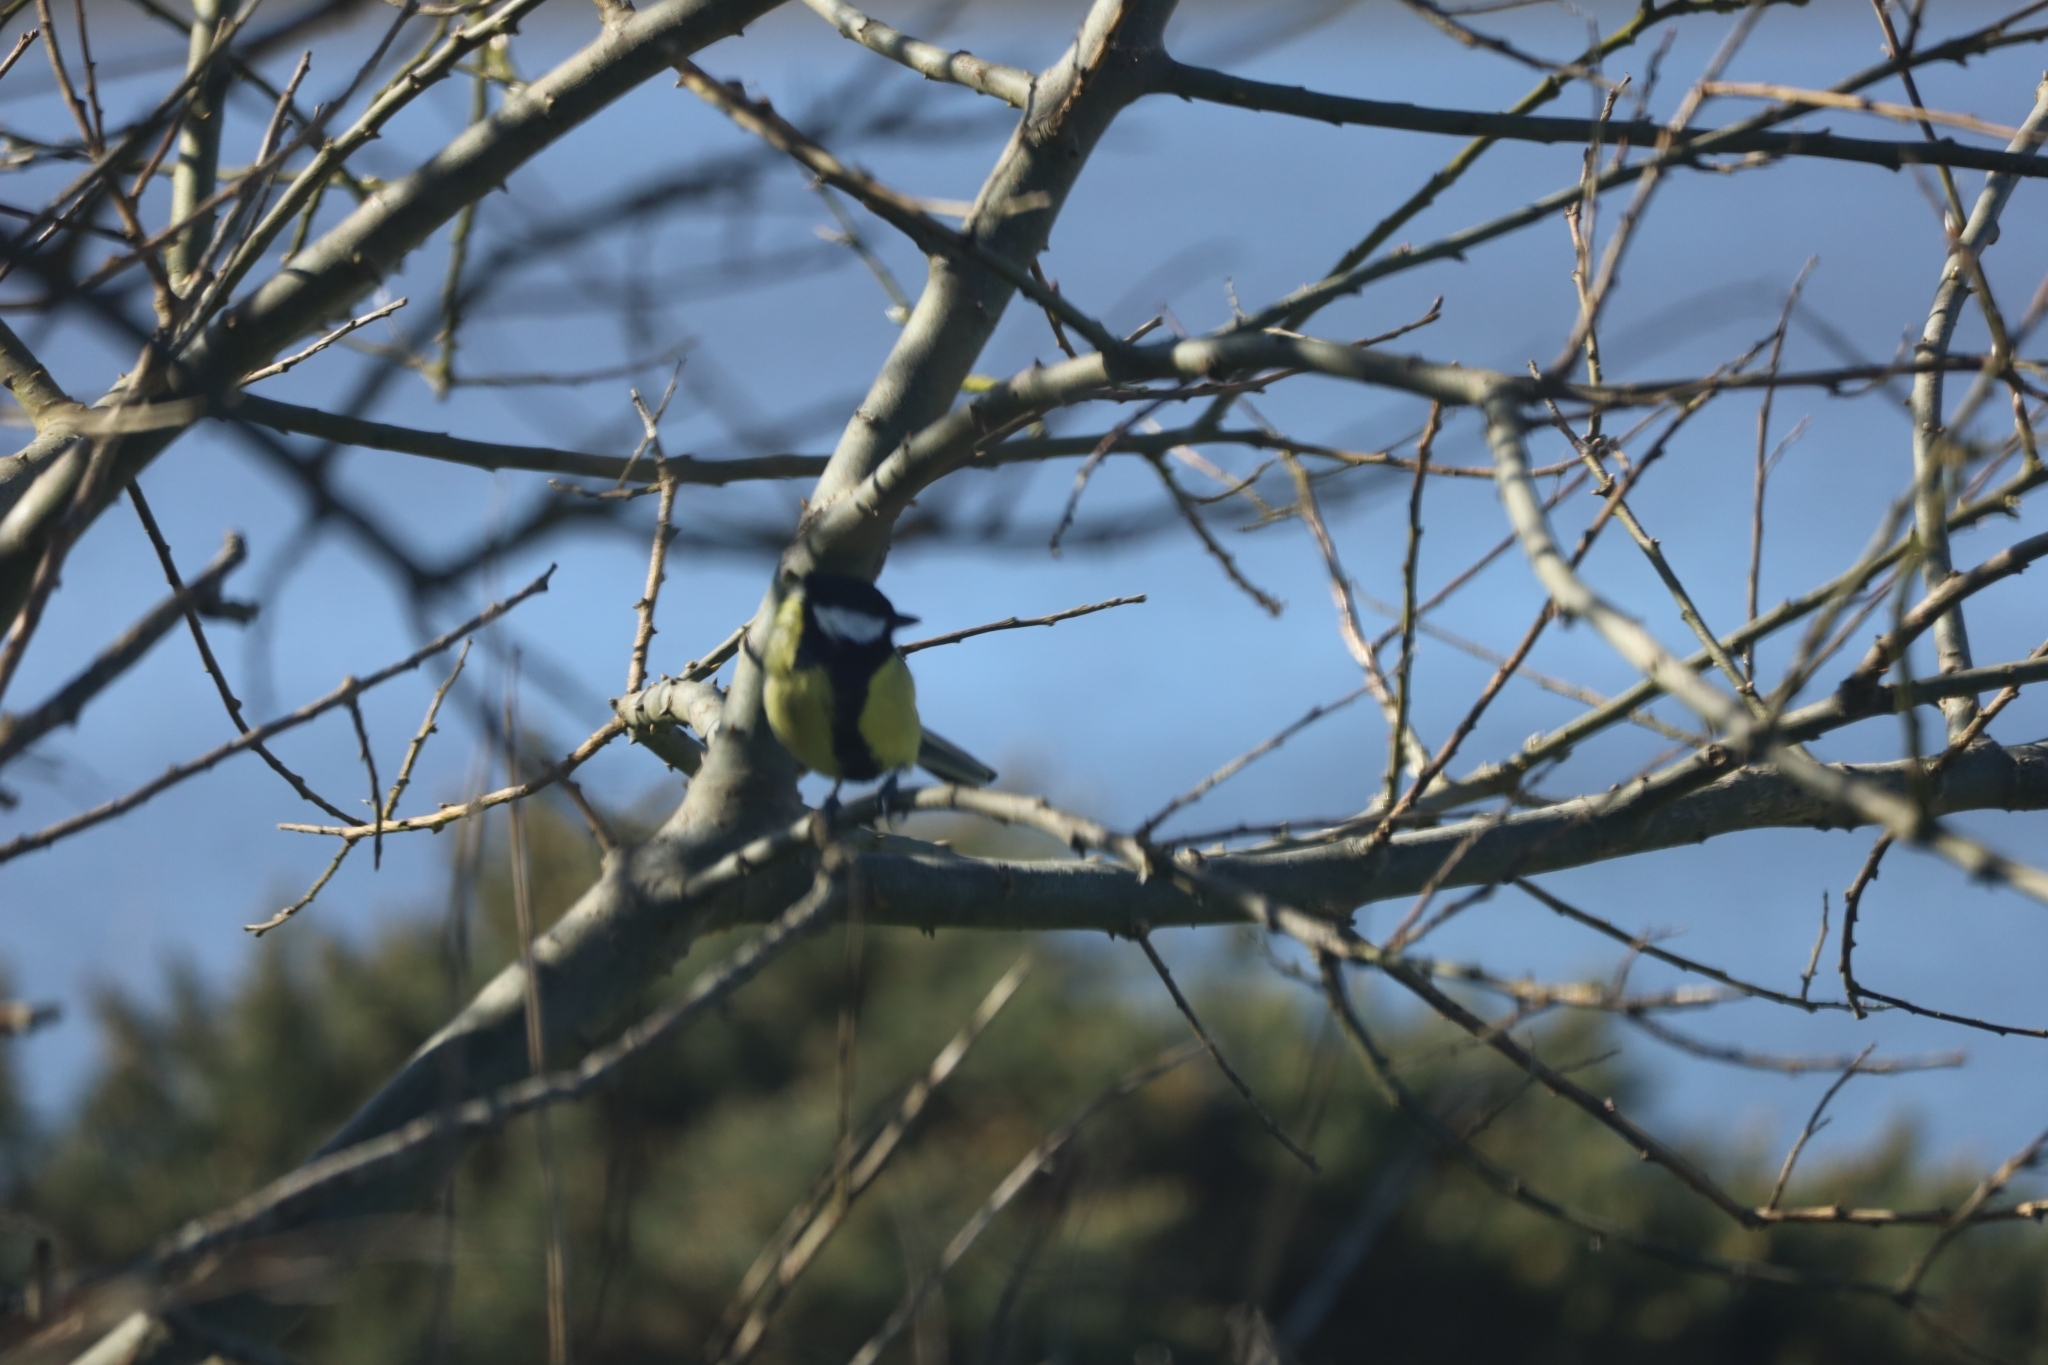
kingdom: Animalia
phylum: Chordata
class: Aves
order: Passeriformes
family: Paridae
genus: Parus
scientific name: Parus major
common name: Great tit
